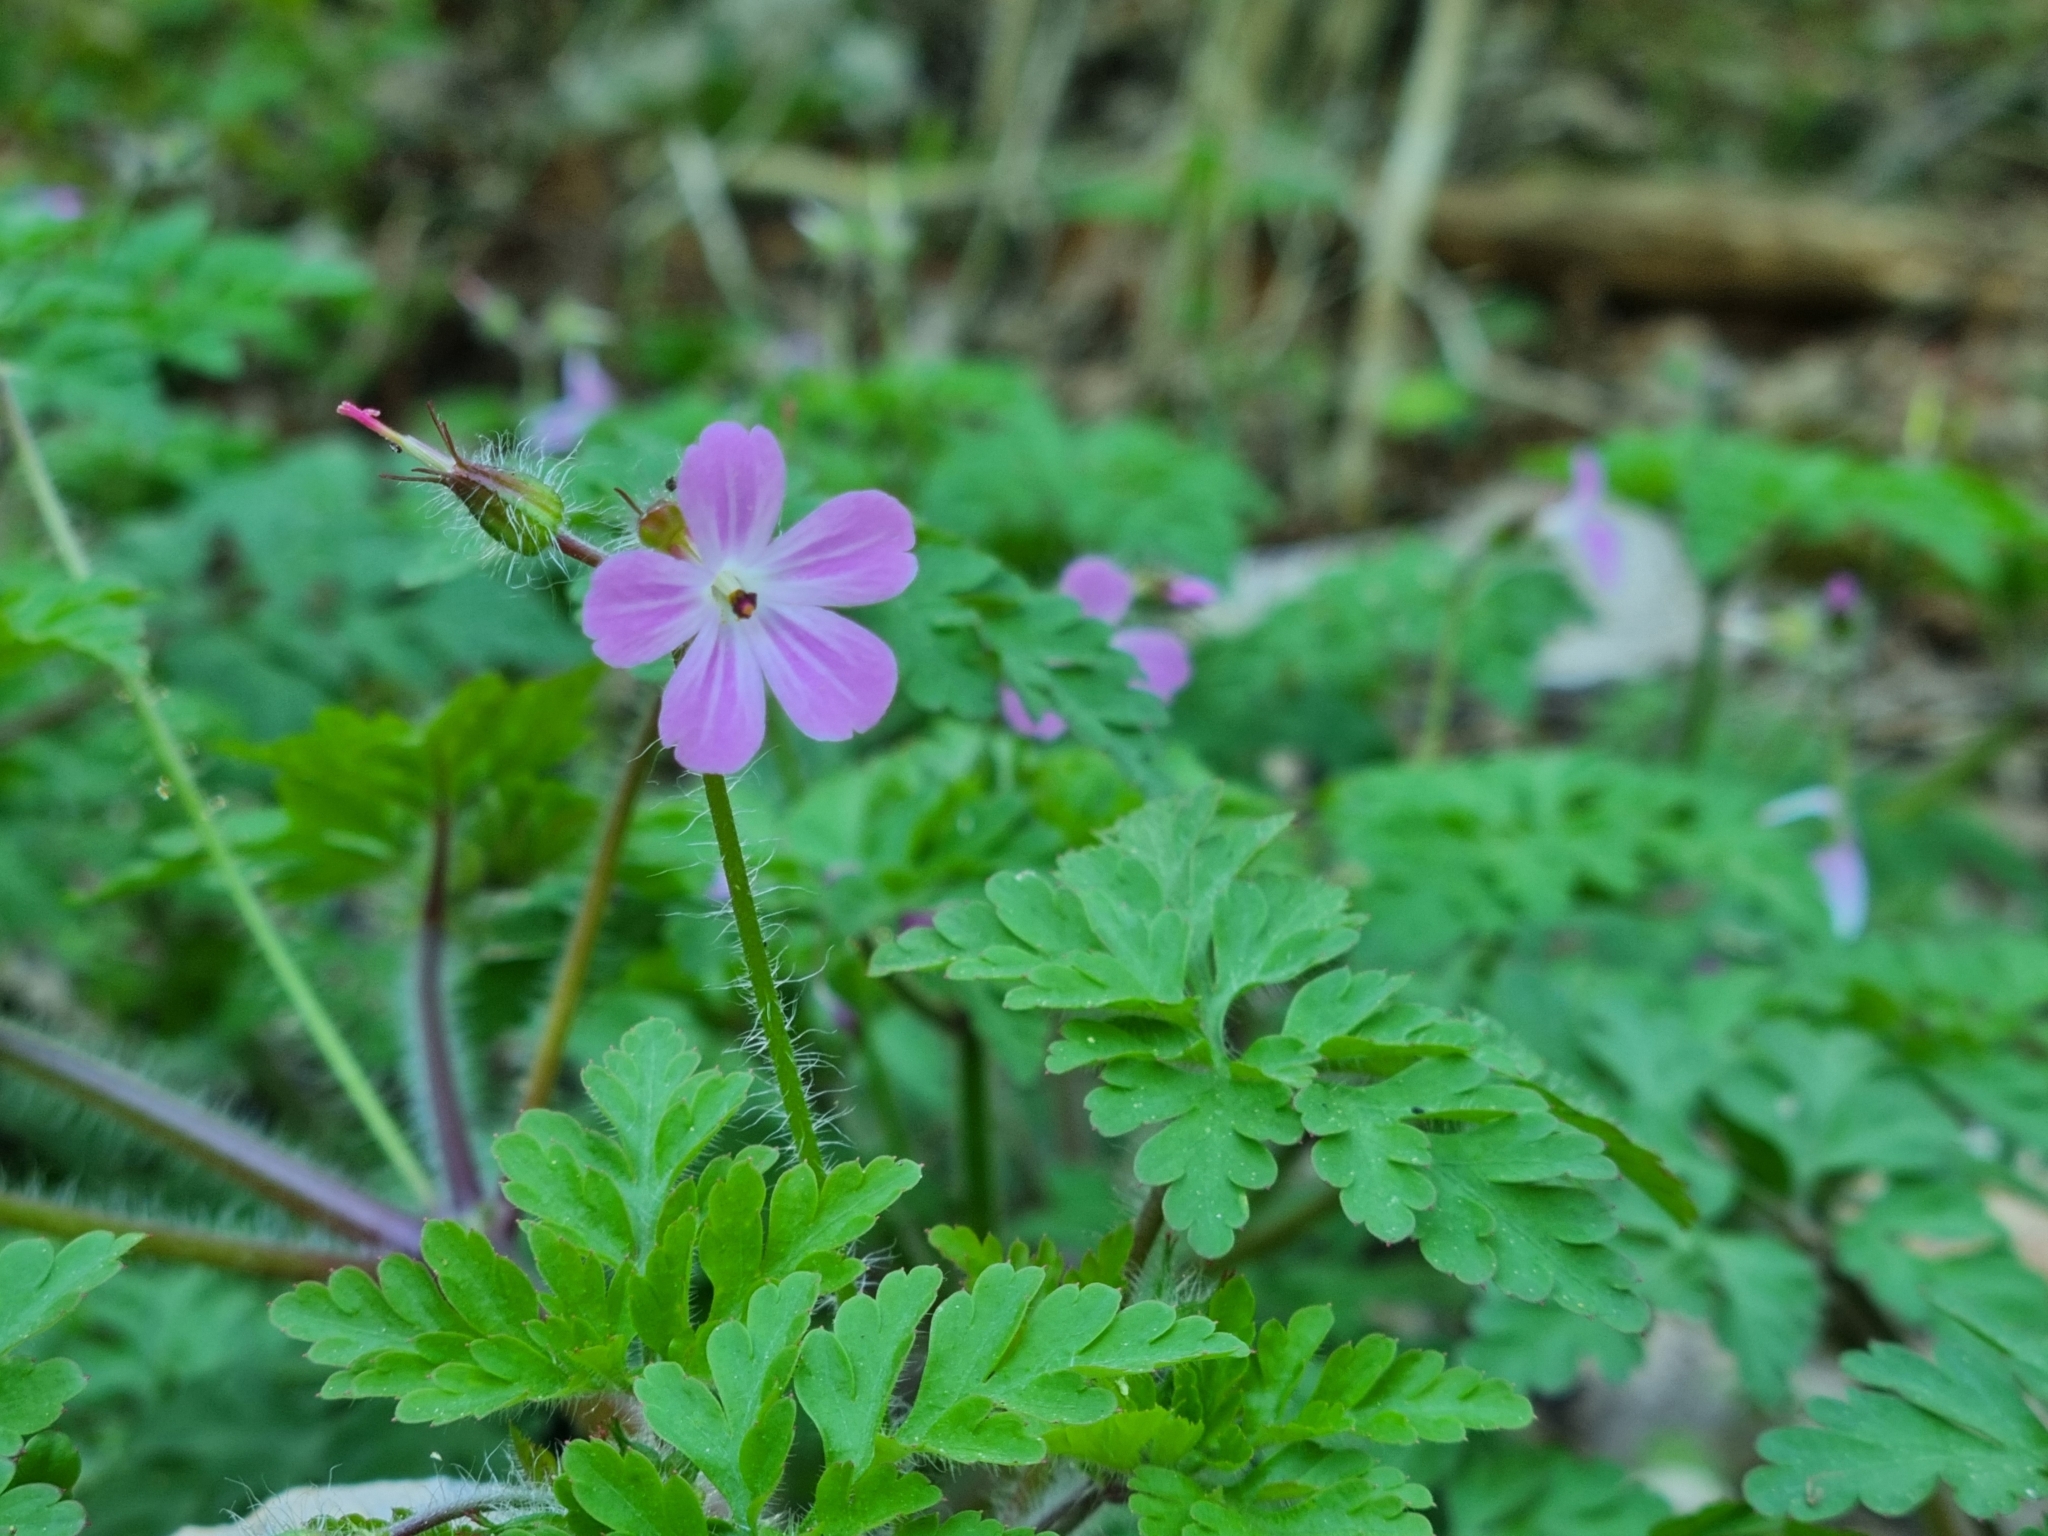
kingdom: Plantae
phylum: Tracheophyta
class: Magnoliopsida
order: Geraniales
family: Geraniaceae
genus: Geranium
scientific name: Geranium robertianum
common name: Herb-robert
